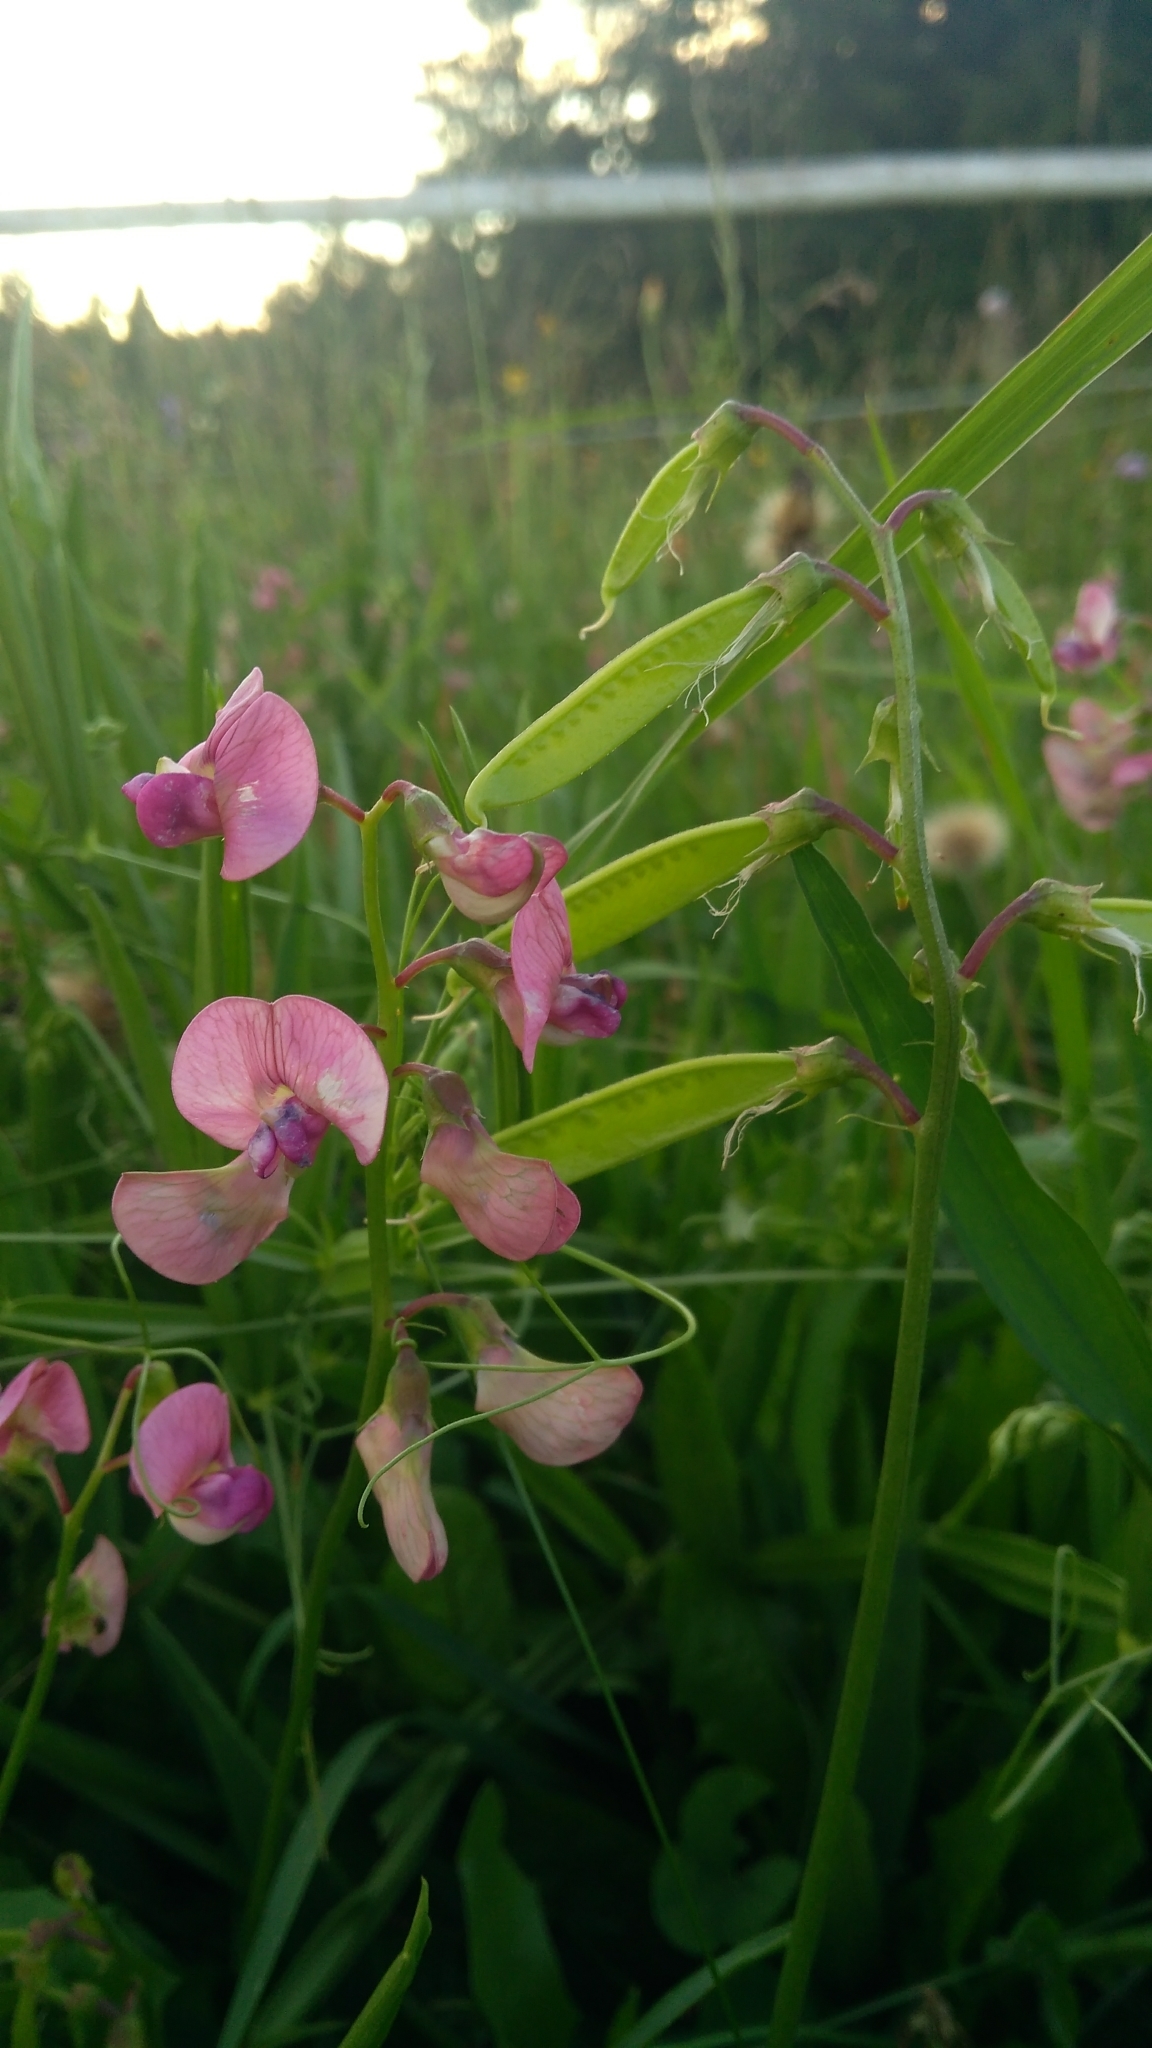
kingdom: Plantae
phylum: Tracheophyta
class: Magnoliopsida
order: Fabales
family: Fabaceae
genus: Lathyrus
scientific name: Lathyrus latifolius
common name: Perennial pea
